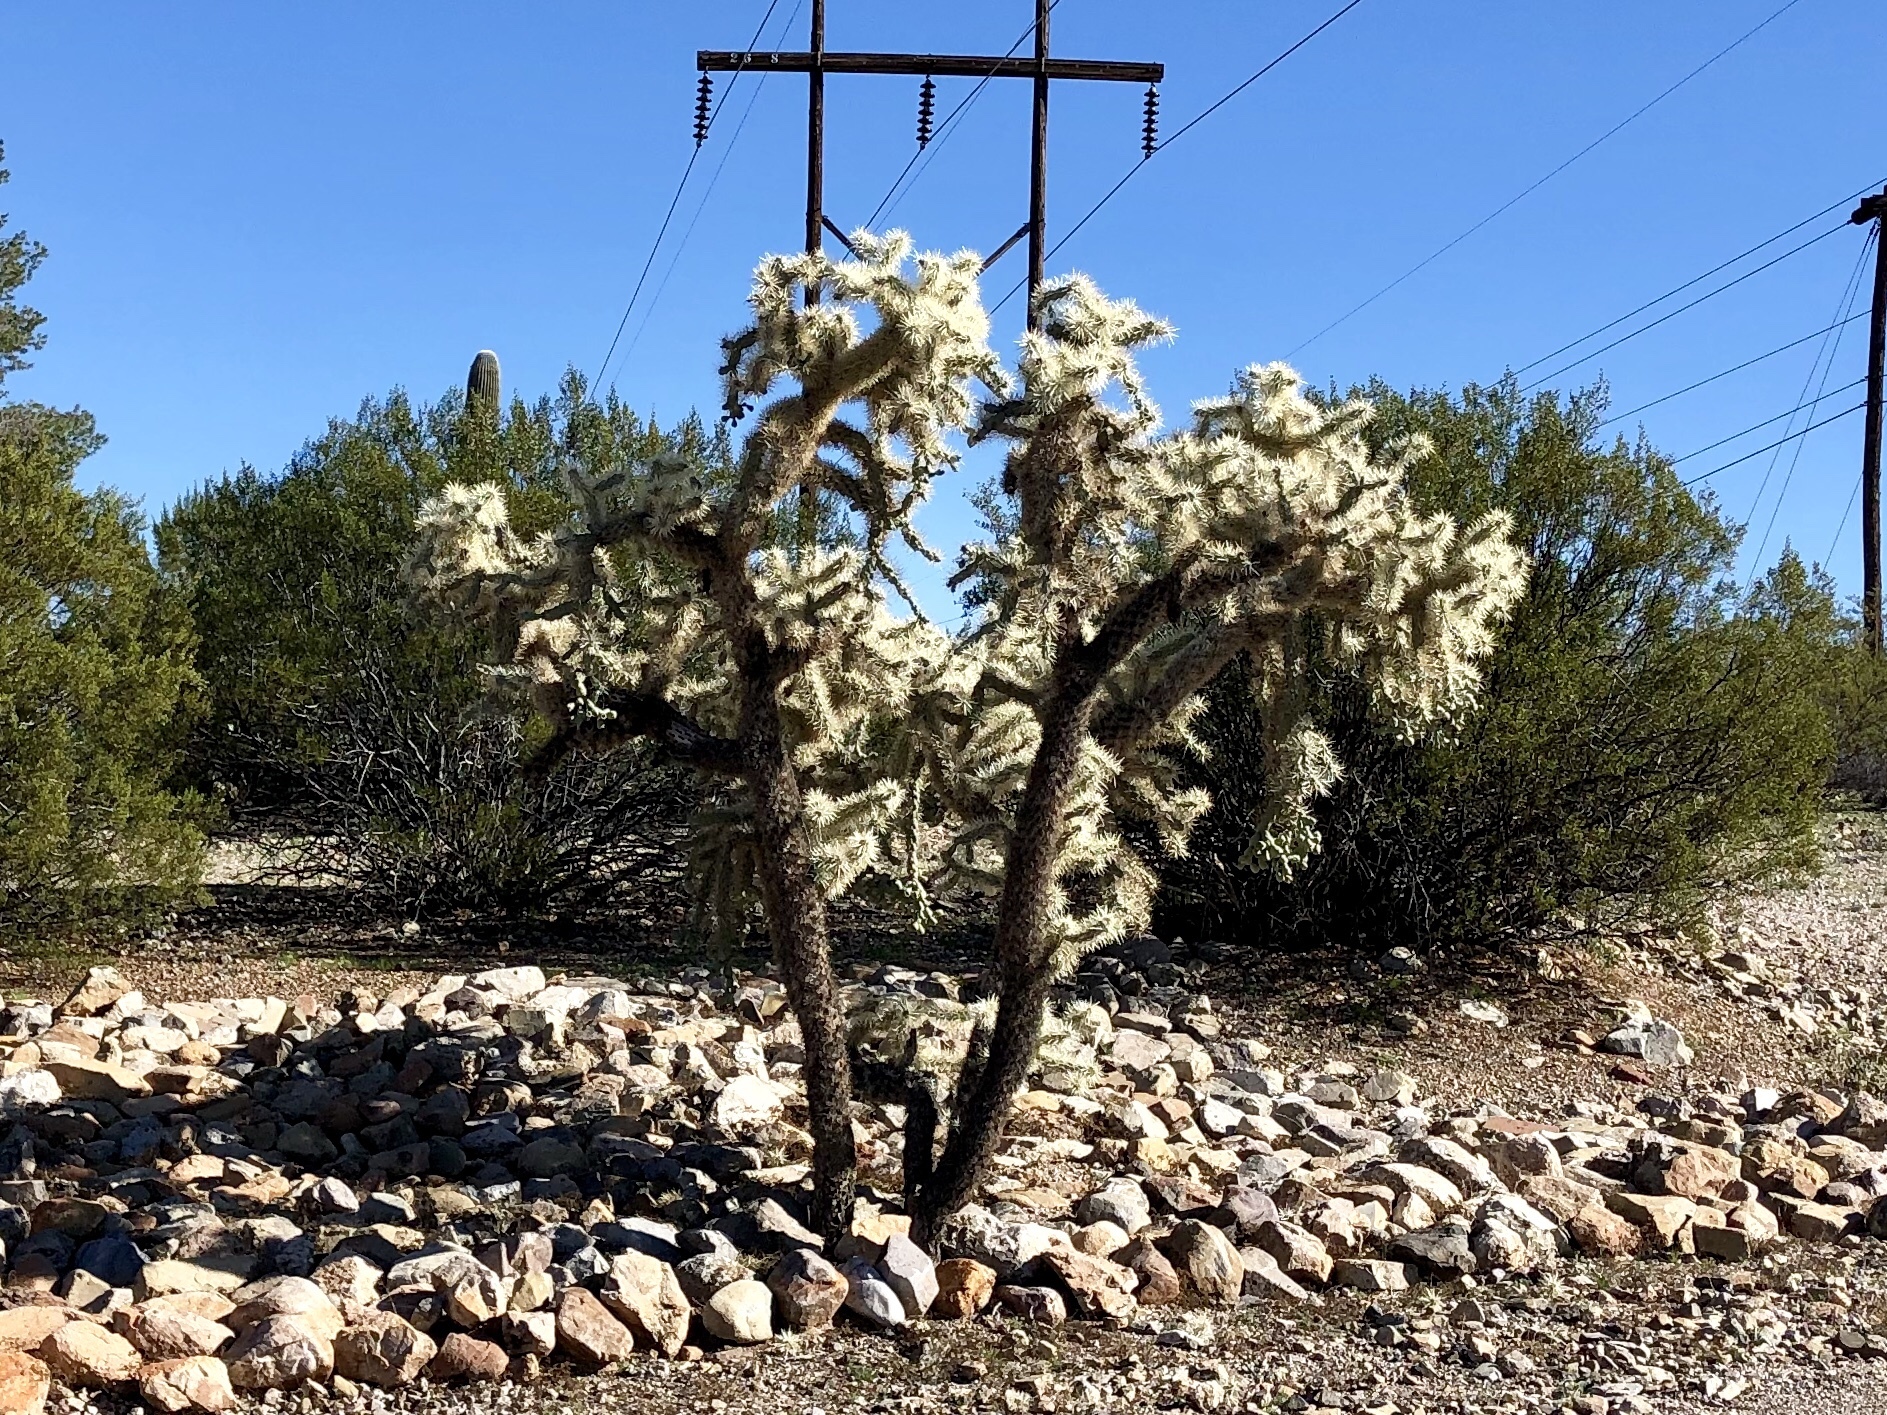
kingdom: Plantae
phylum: Tracheophyta
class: Magnoliopsida
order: Caryophyllales
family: Cactaceae
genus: Cylindropuntia
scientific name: Cylindropuntia fulgida
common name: Jumping cholla
